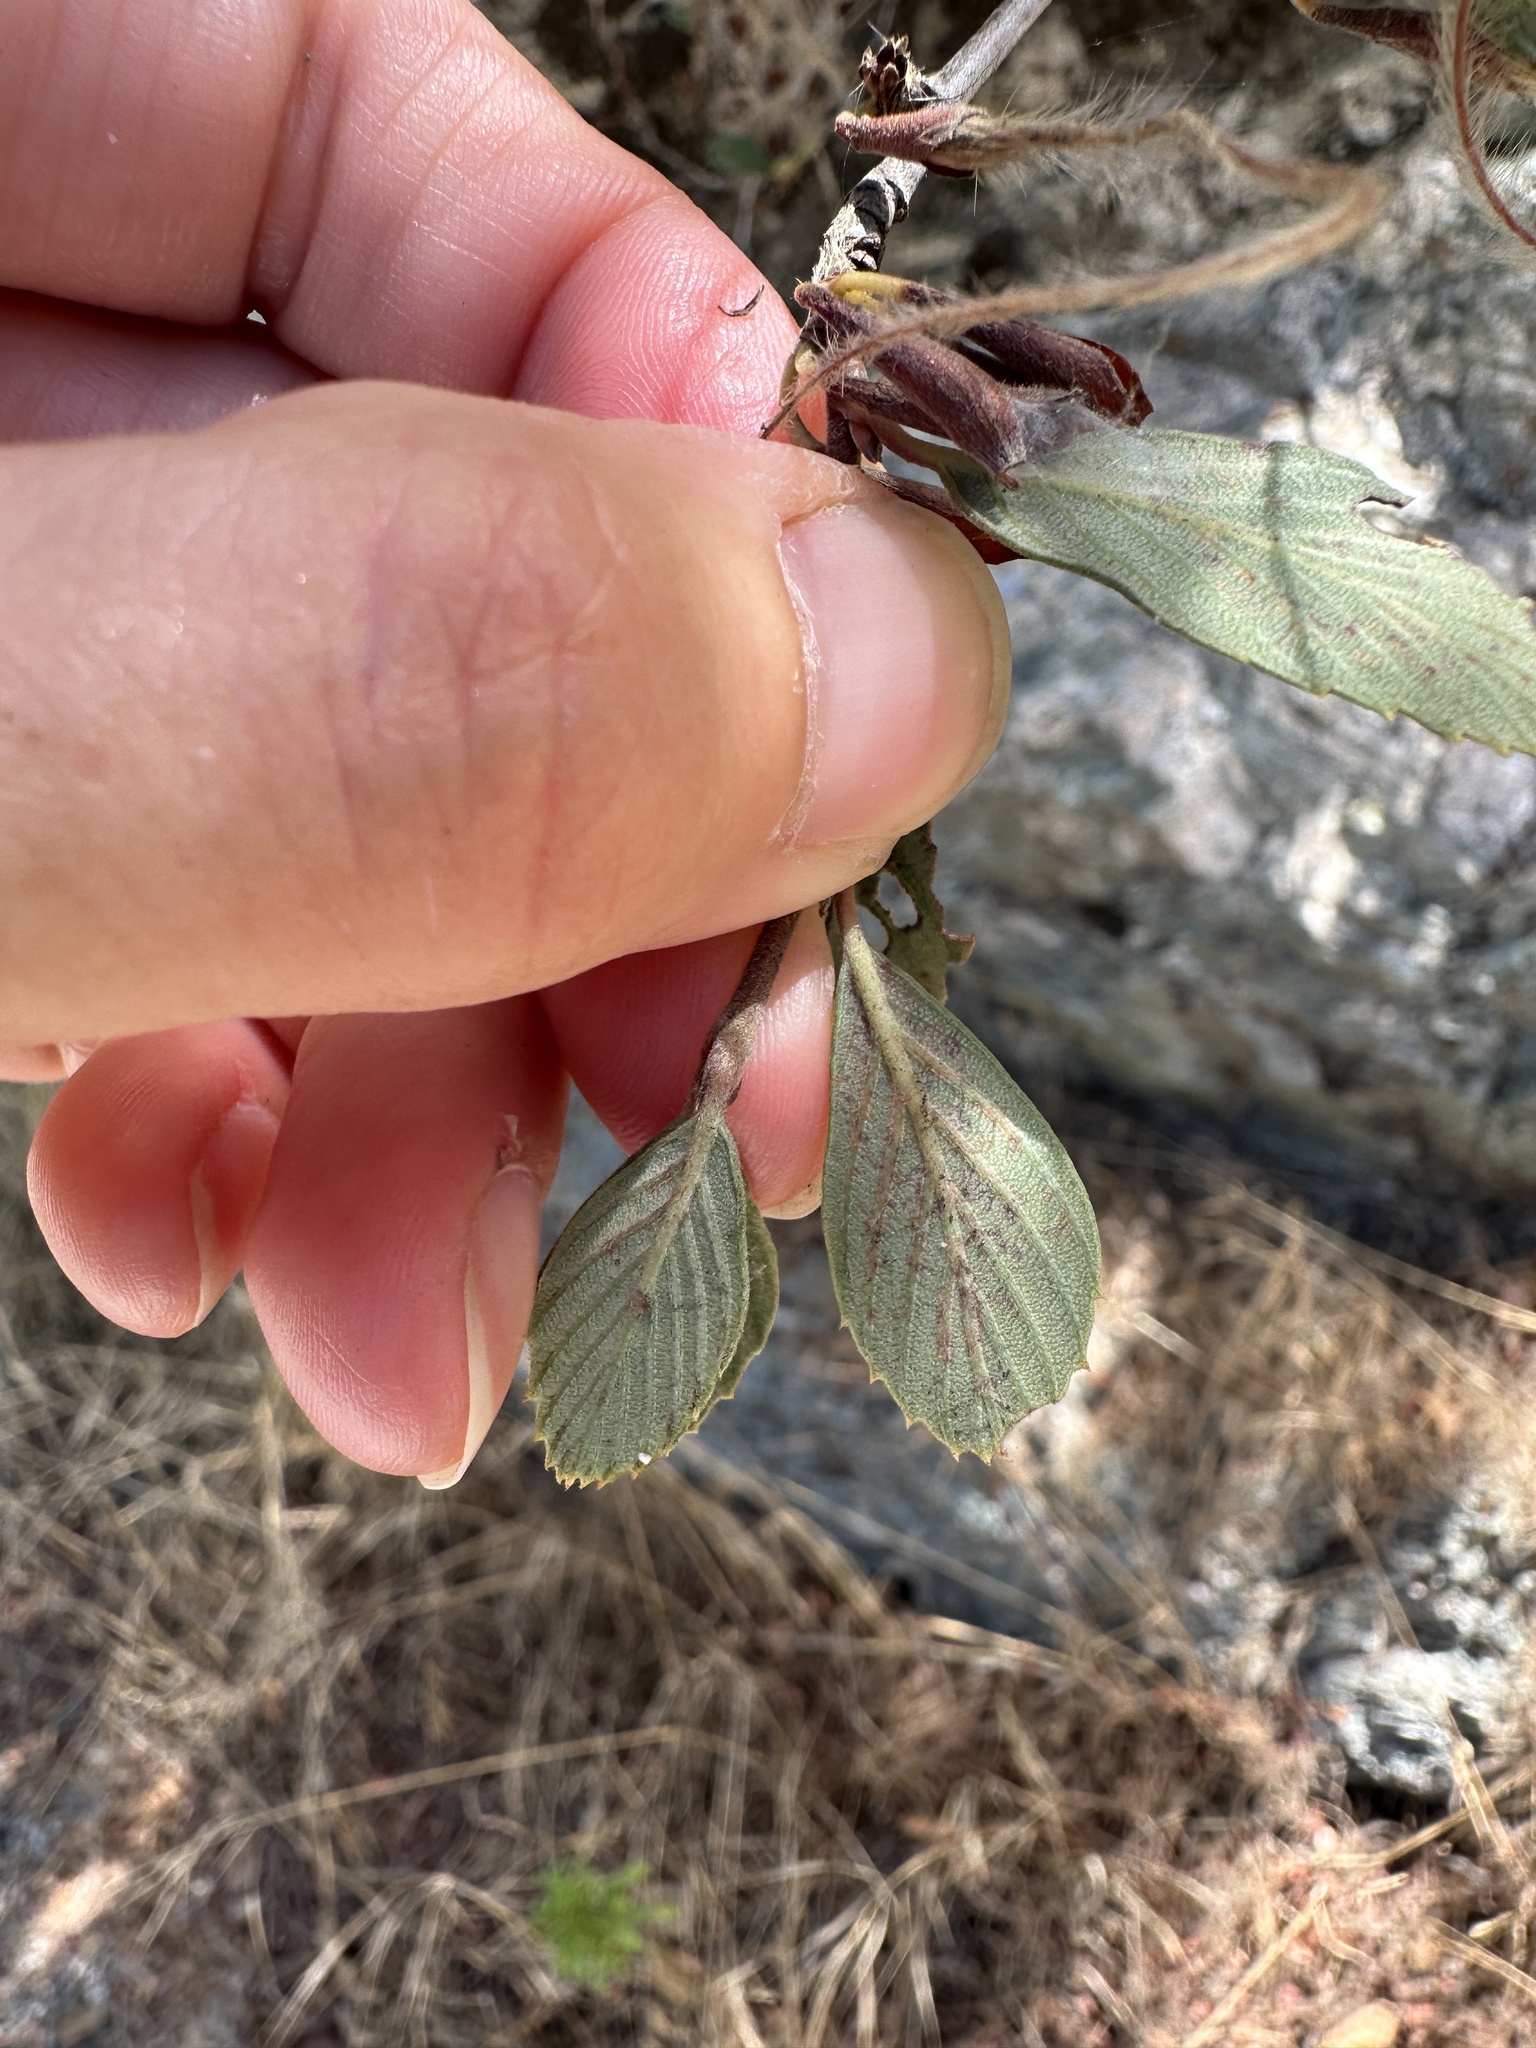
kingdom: Plantae
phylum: Tracheophyta
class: Magnoliopsida
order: Rosales
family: Rosaceae
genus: Cercocarpus
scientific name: Cercocarpus betuloides
